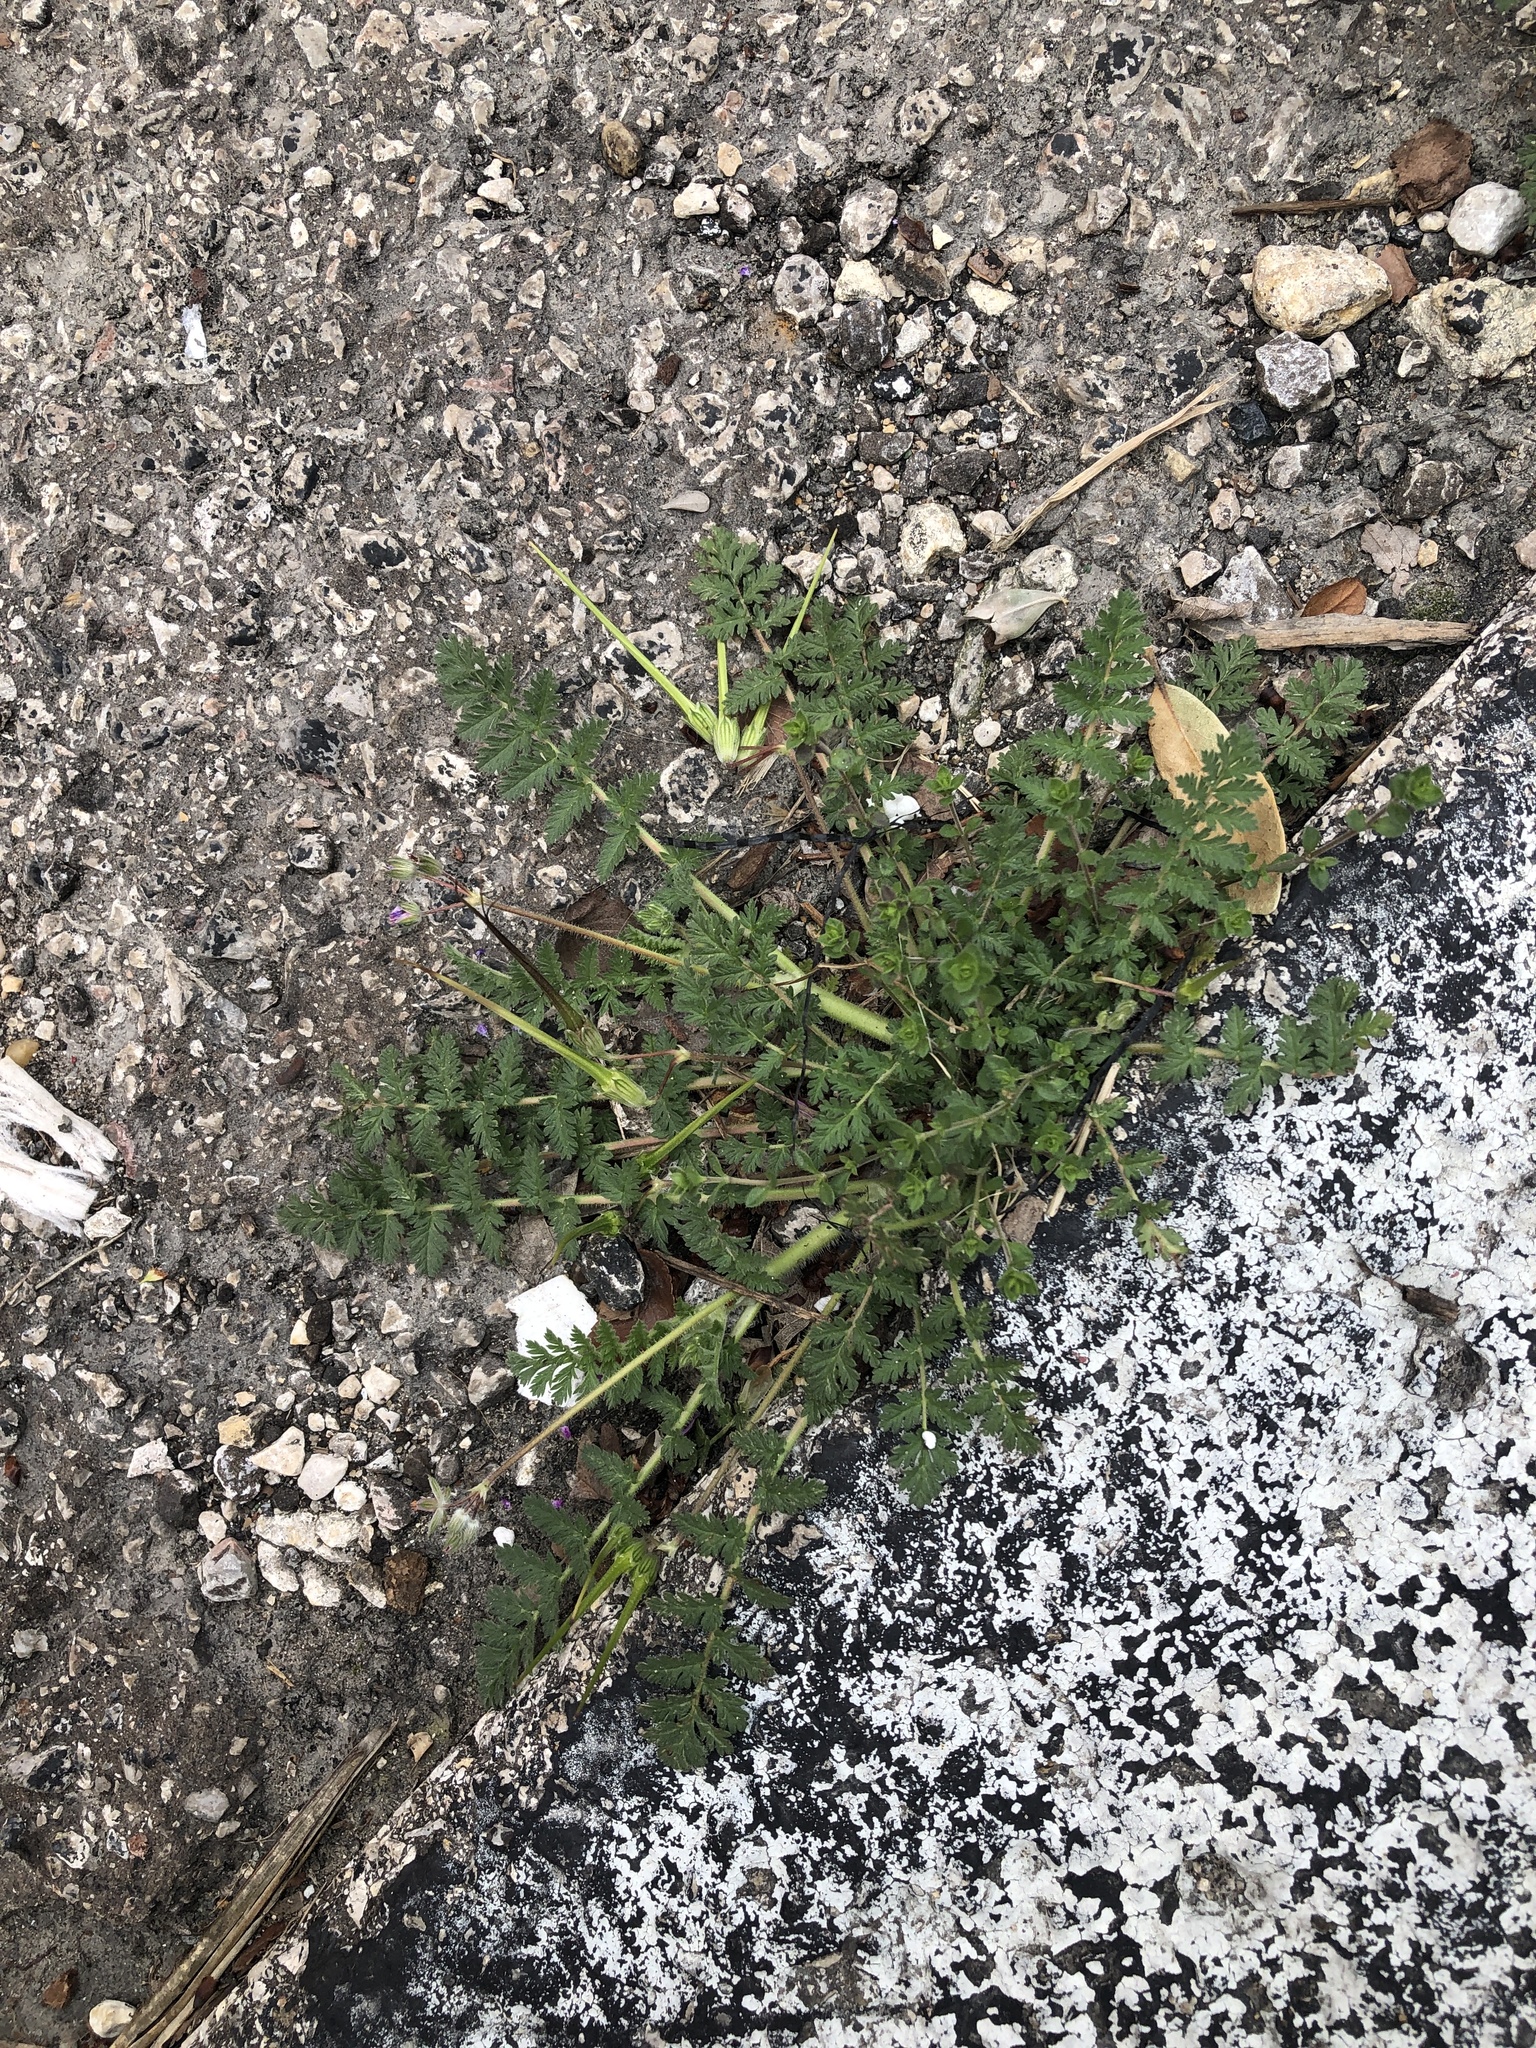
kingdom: Plantae
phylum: Tracheophyta
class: Magnoliopsida
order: Geraniales
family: Geraniaceae
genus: Erodium
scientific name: Erodium cicutarium
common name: Common stork's-bill
